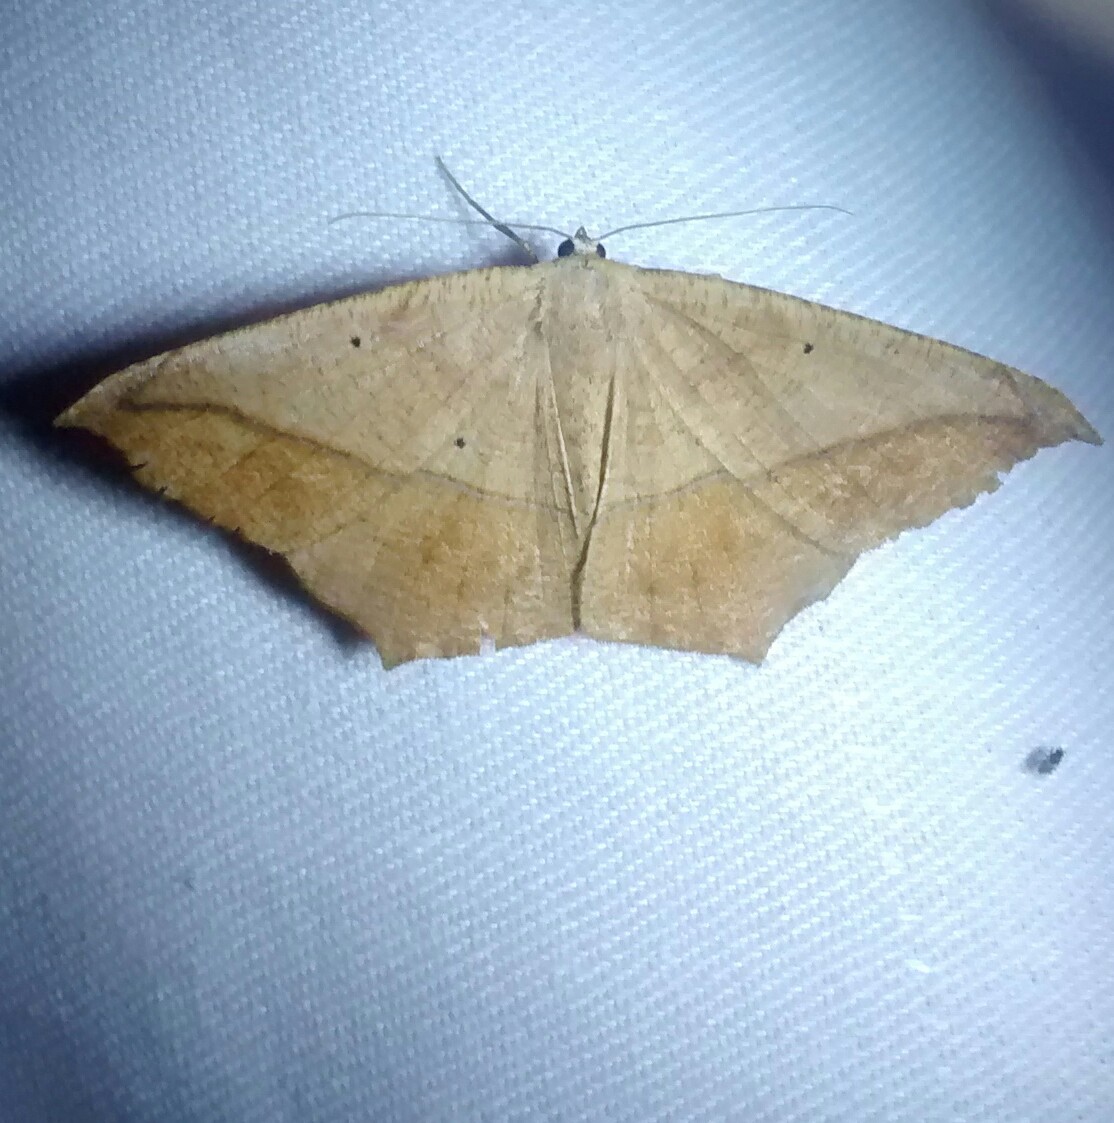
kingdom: Animalia
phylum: Arthropoda
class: Insecta
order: Lepidoptera
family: Geometridae
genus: Prochoerodes
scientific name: Prochoerodes lineola
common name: Large maple spanworm
